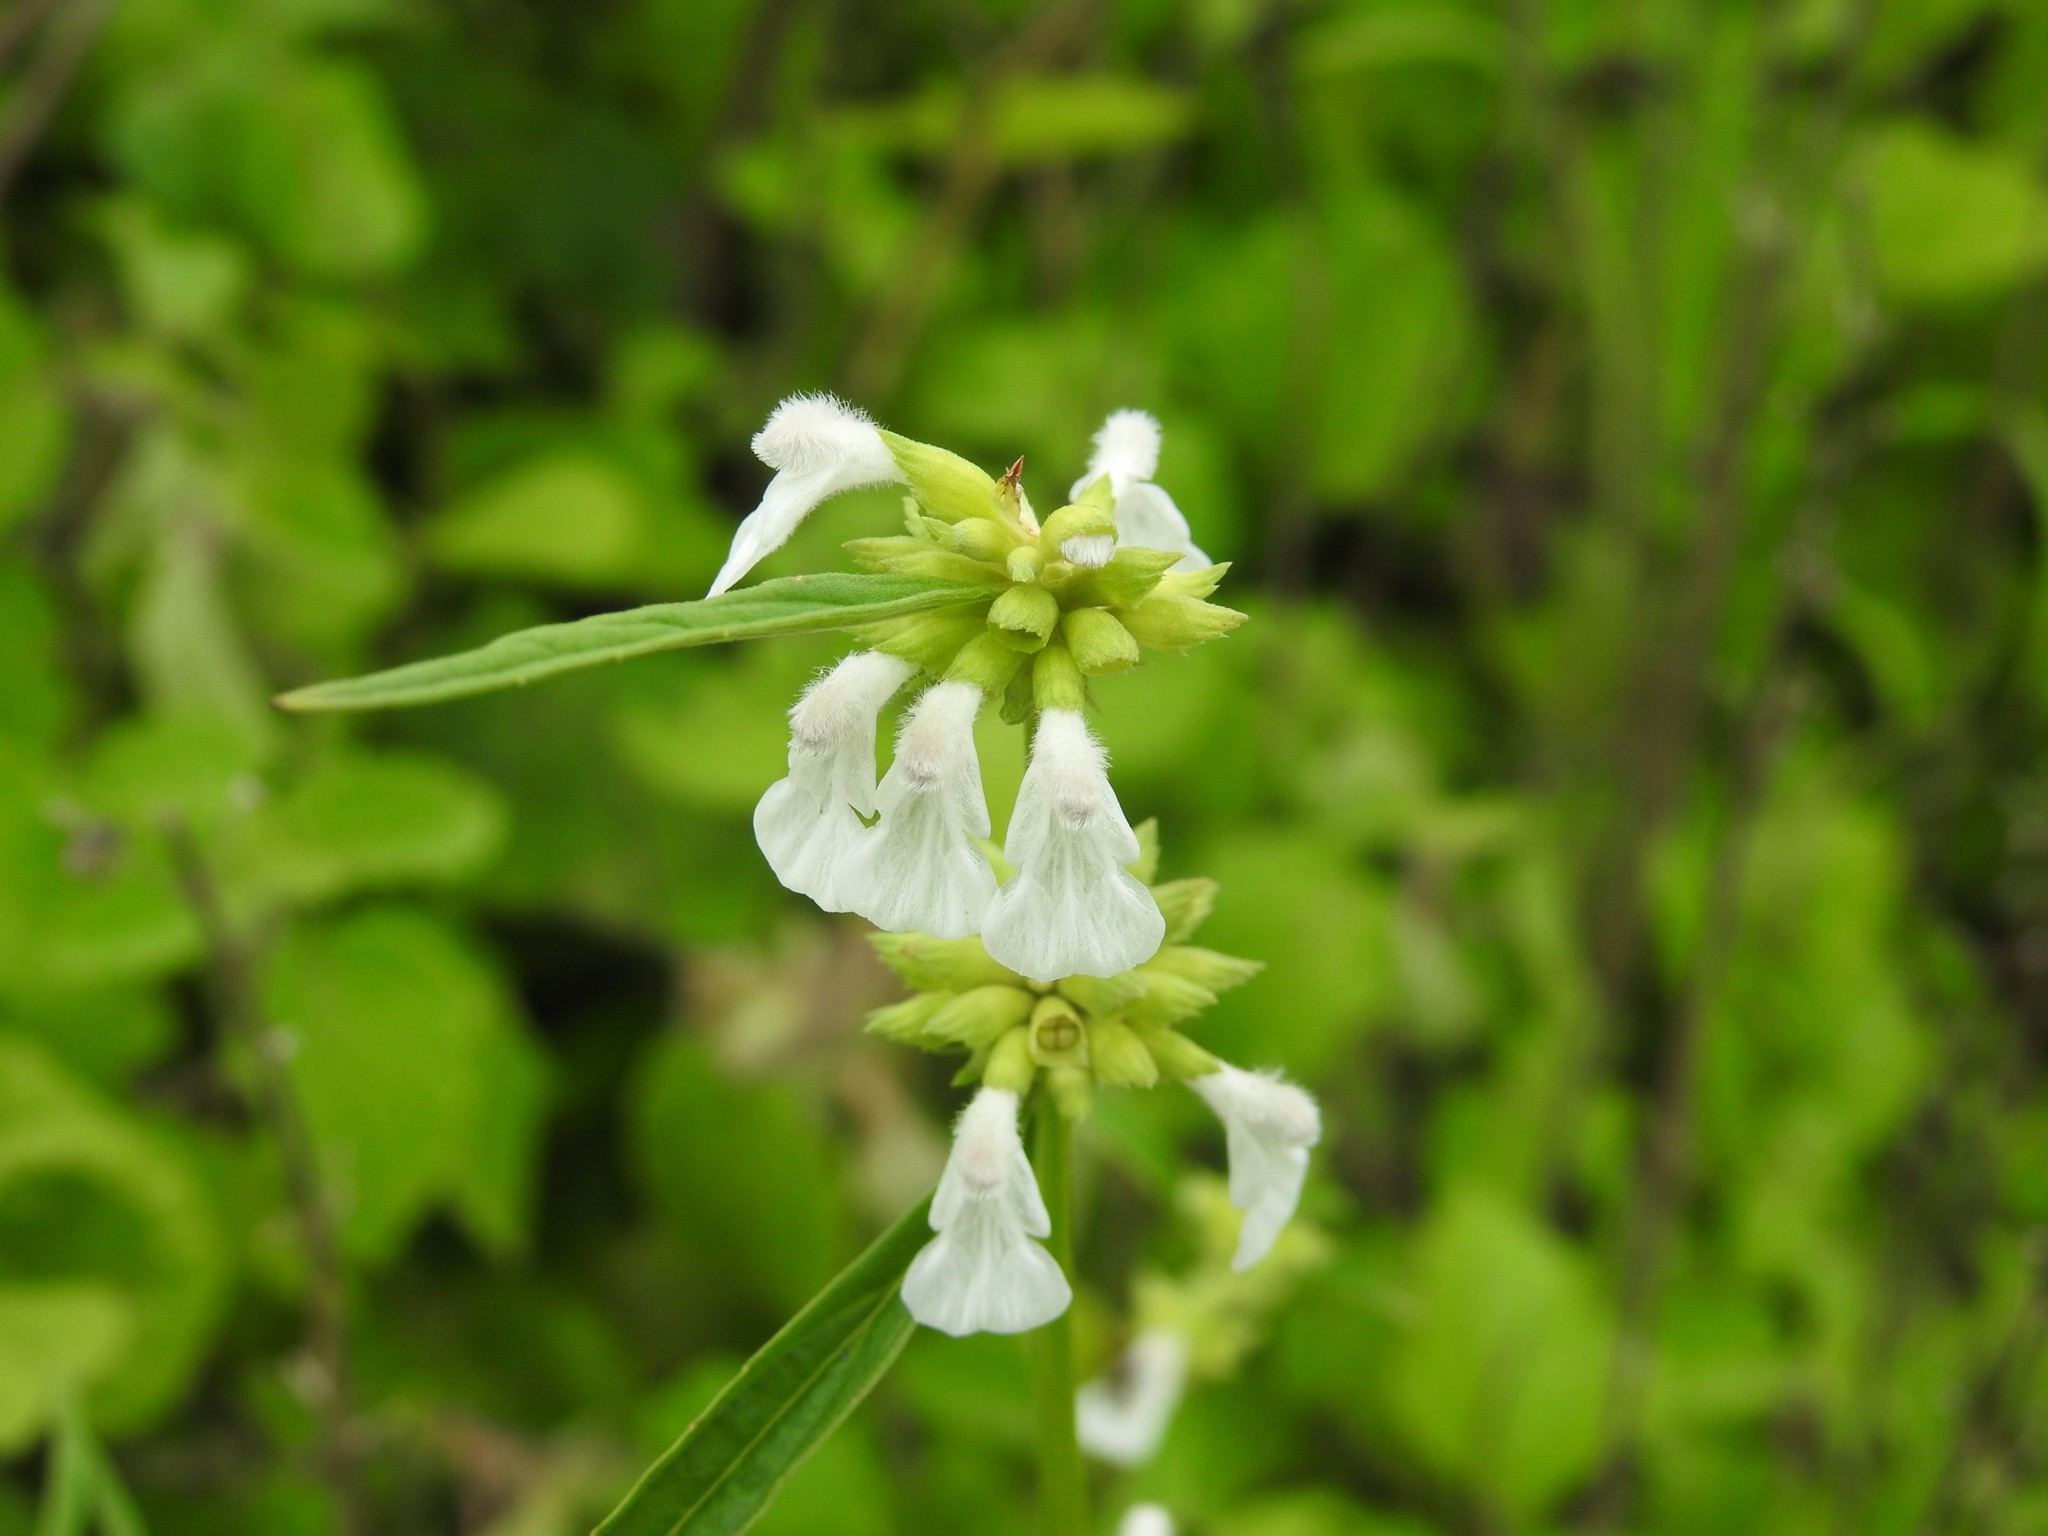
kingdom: Plantae
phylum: Tracheophyta
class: Magnoliopsida
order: Lamiales
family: Lamiaceae
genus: Leucas
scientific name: Leucas aspera
